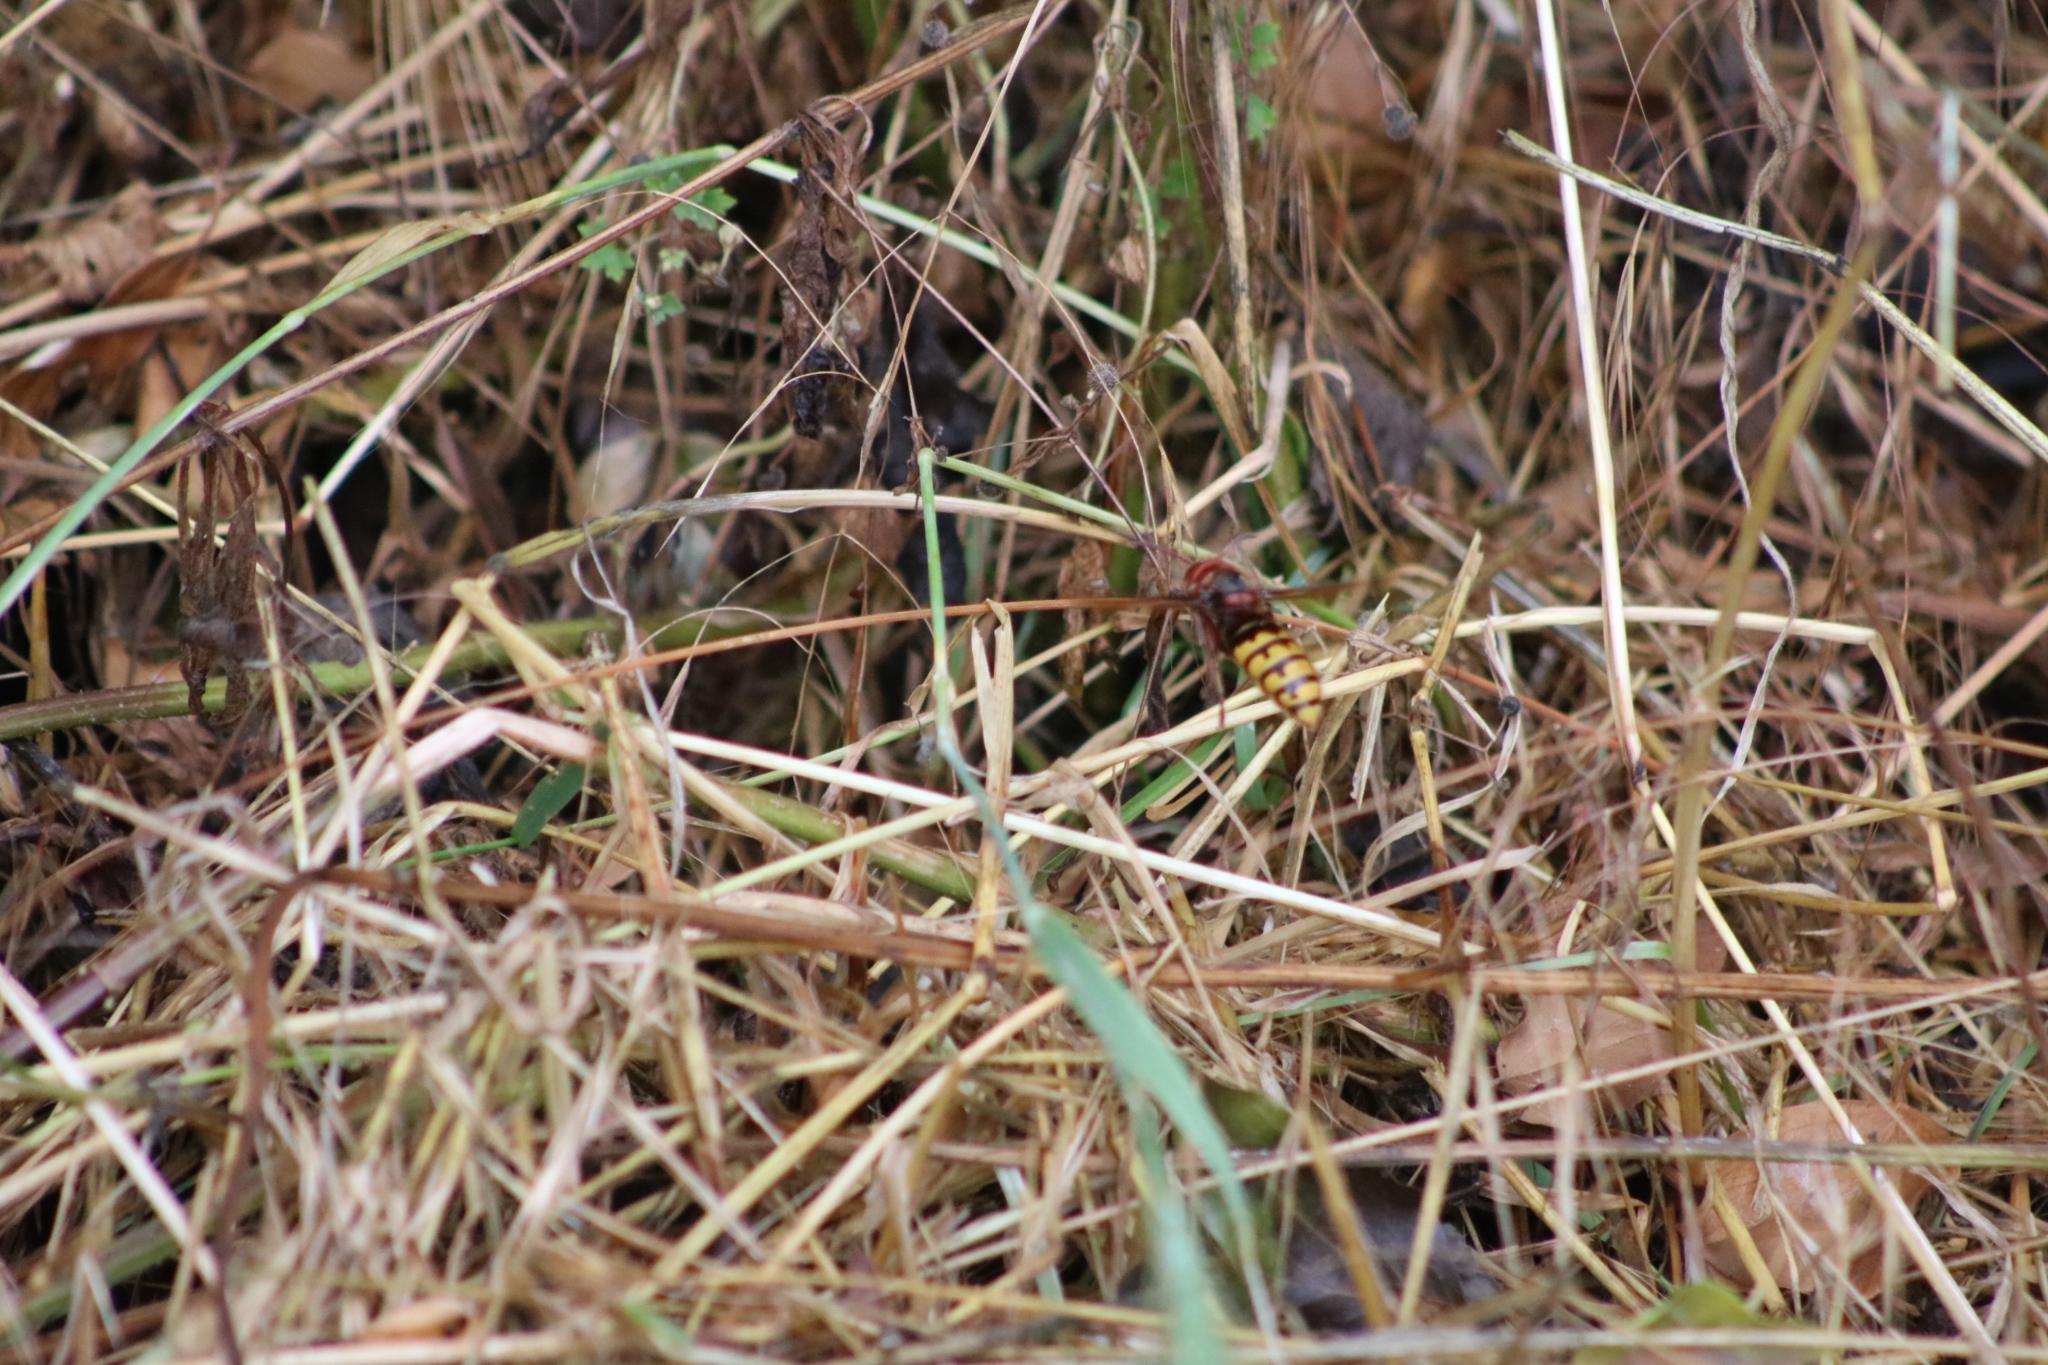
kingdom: Animalia
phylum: Arthropoda
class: Insecta
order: Hymenoptera
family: Vespidae
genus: Vespa
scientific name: Vespa crabro
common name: Hornet
